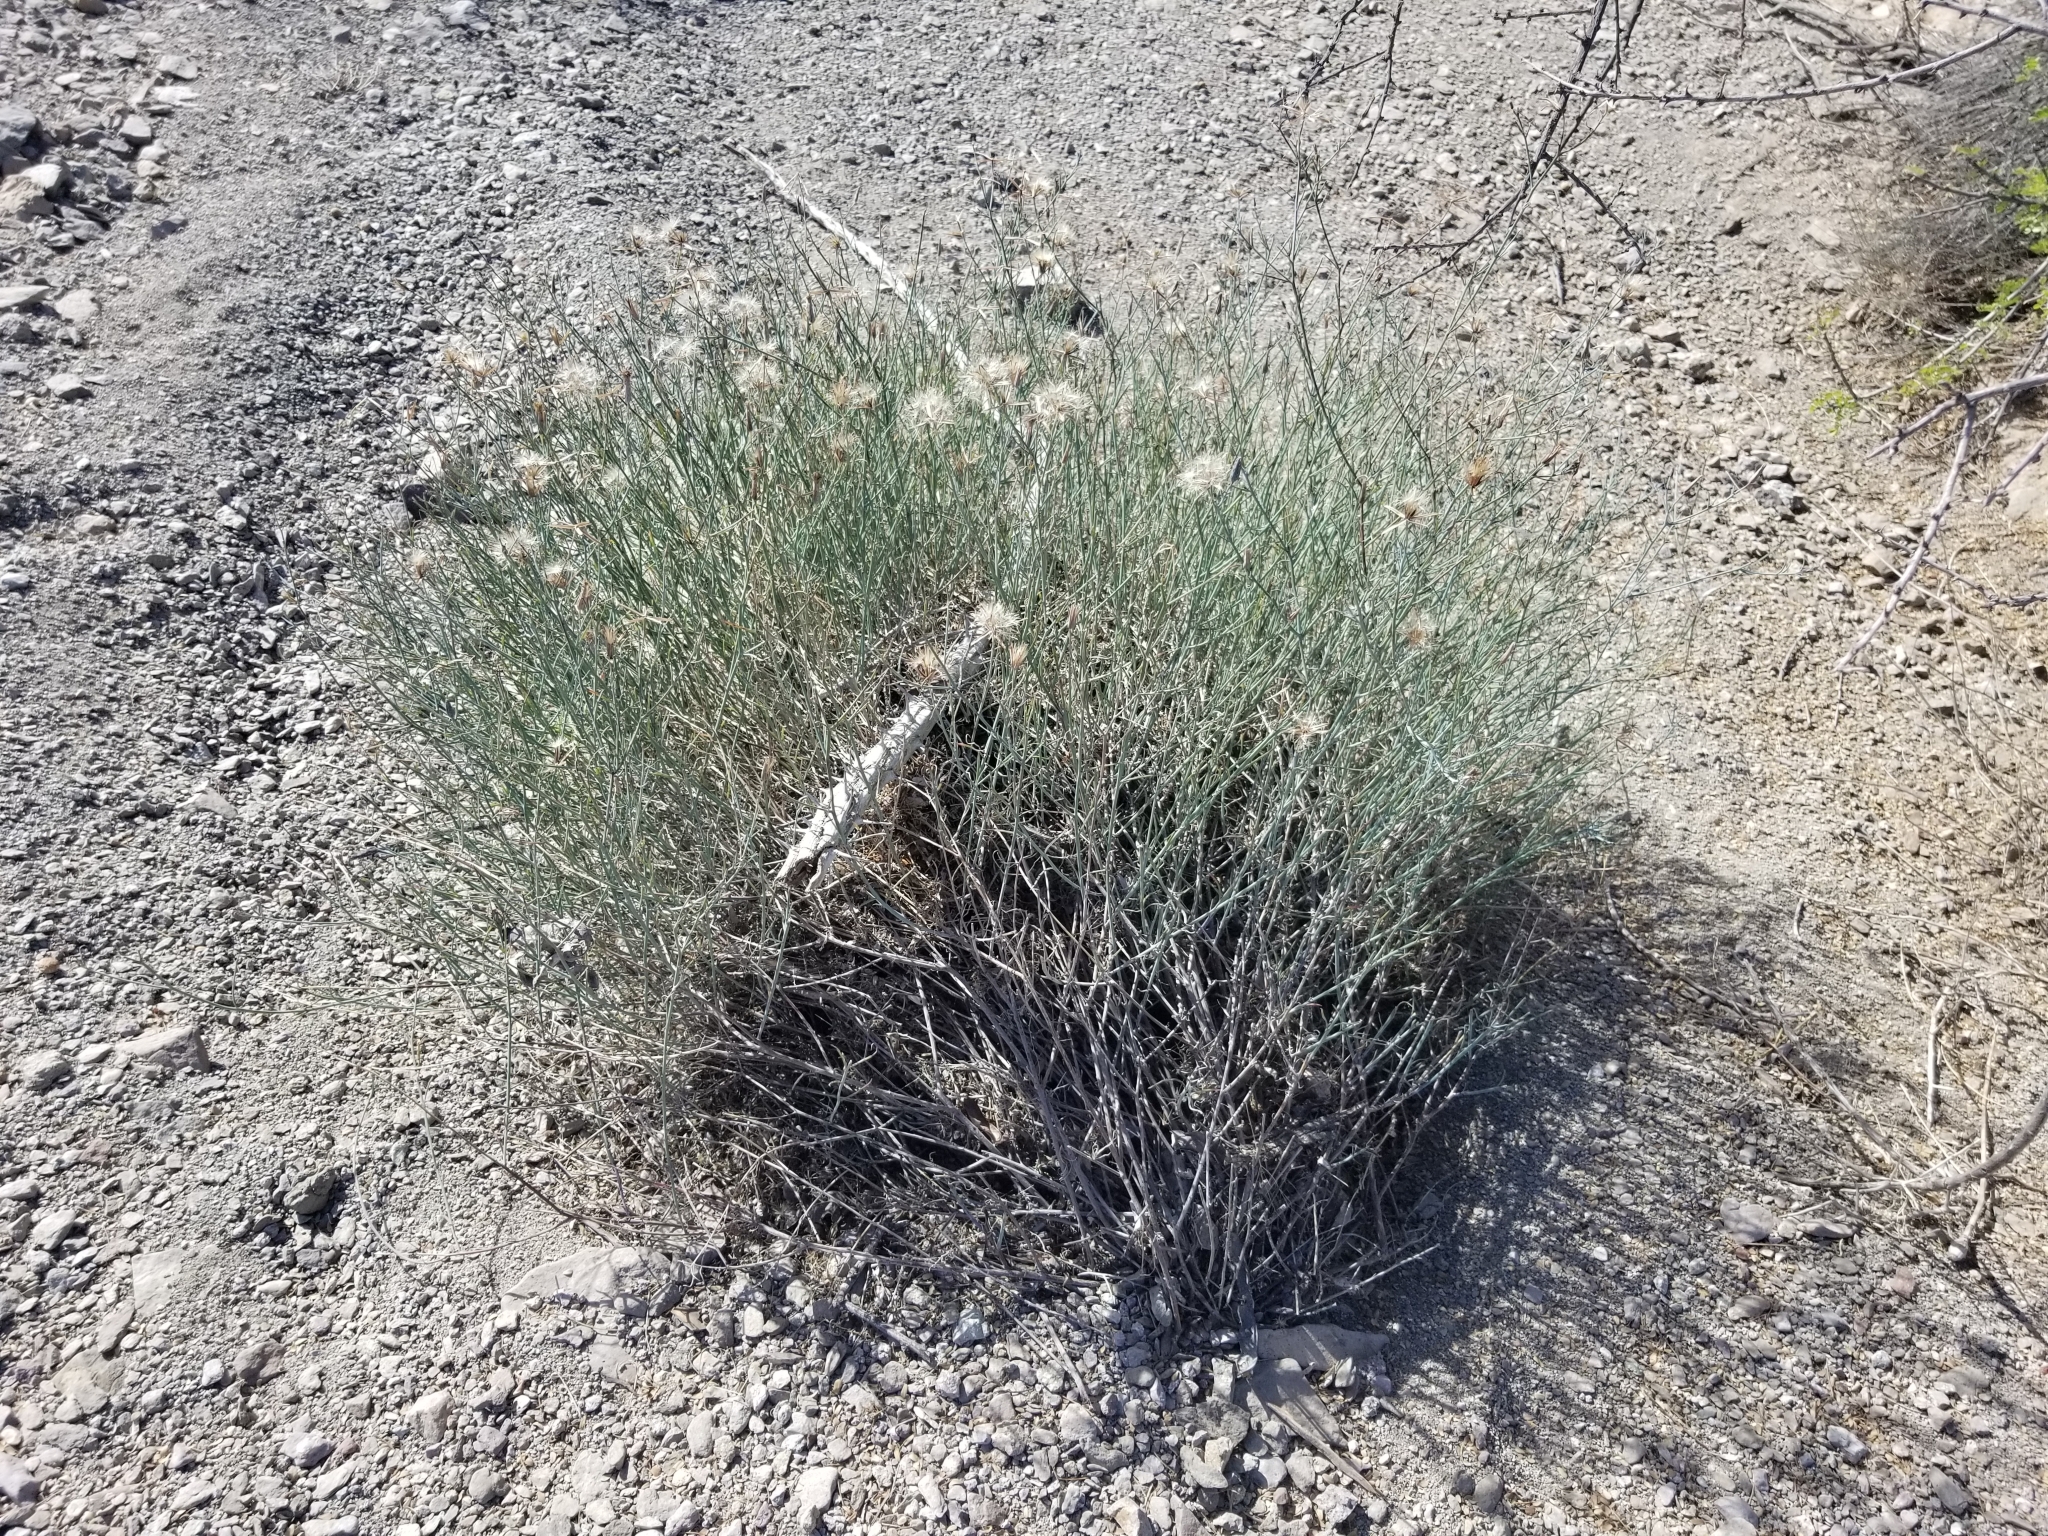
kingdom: Plantae
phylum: Tracheophyta
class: Magnoliopsida
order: Asterales
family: Asteraceae
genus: Porophyllum
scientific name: Porophyllum gracile
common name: Odora
